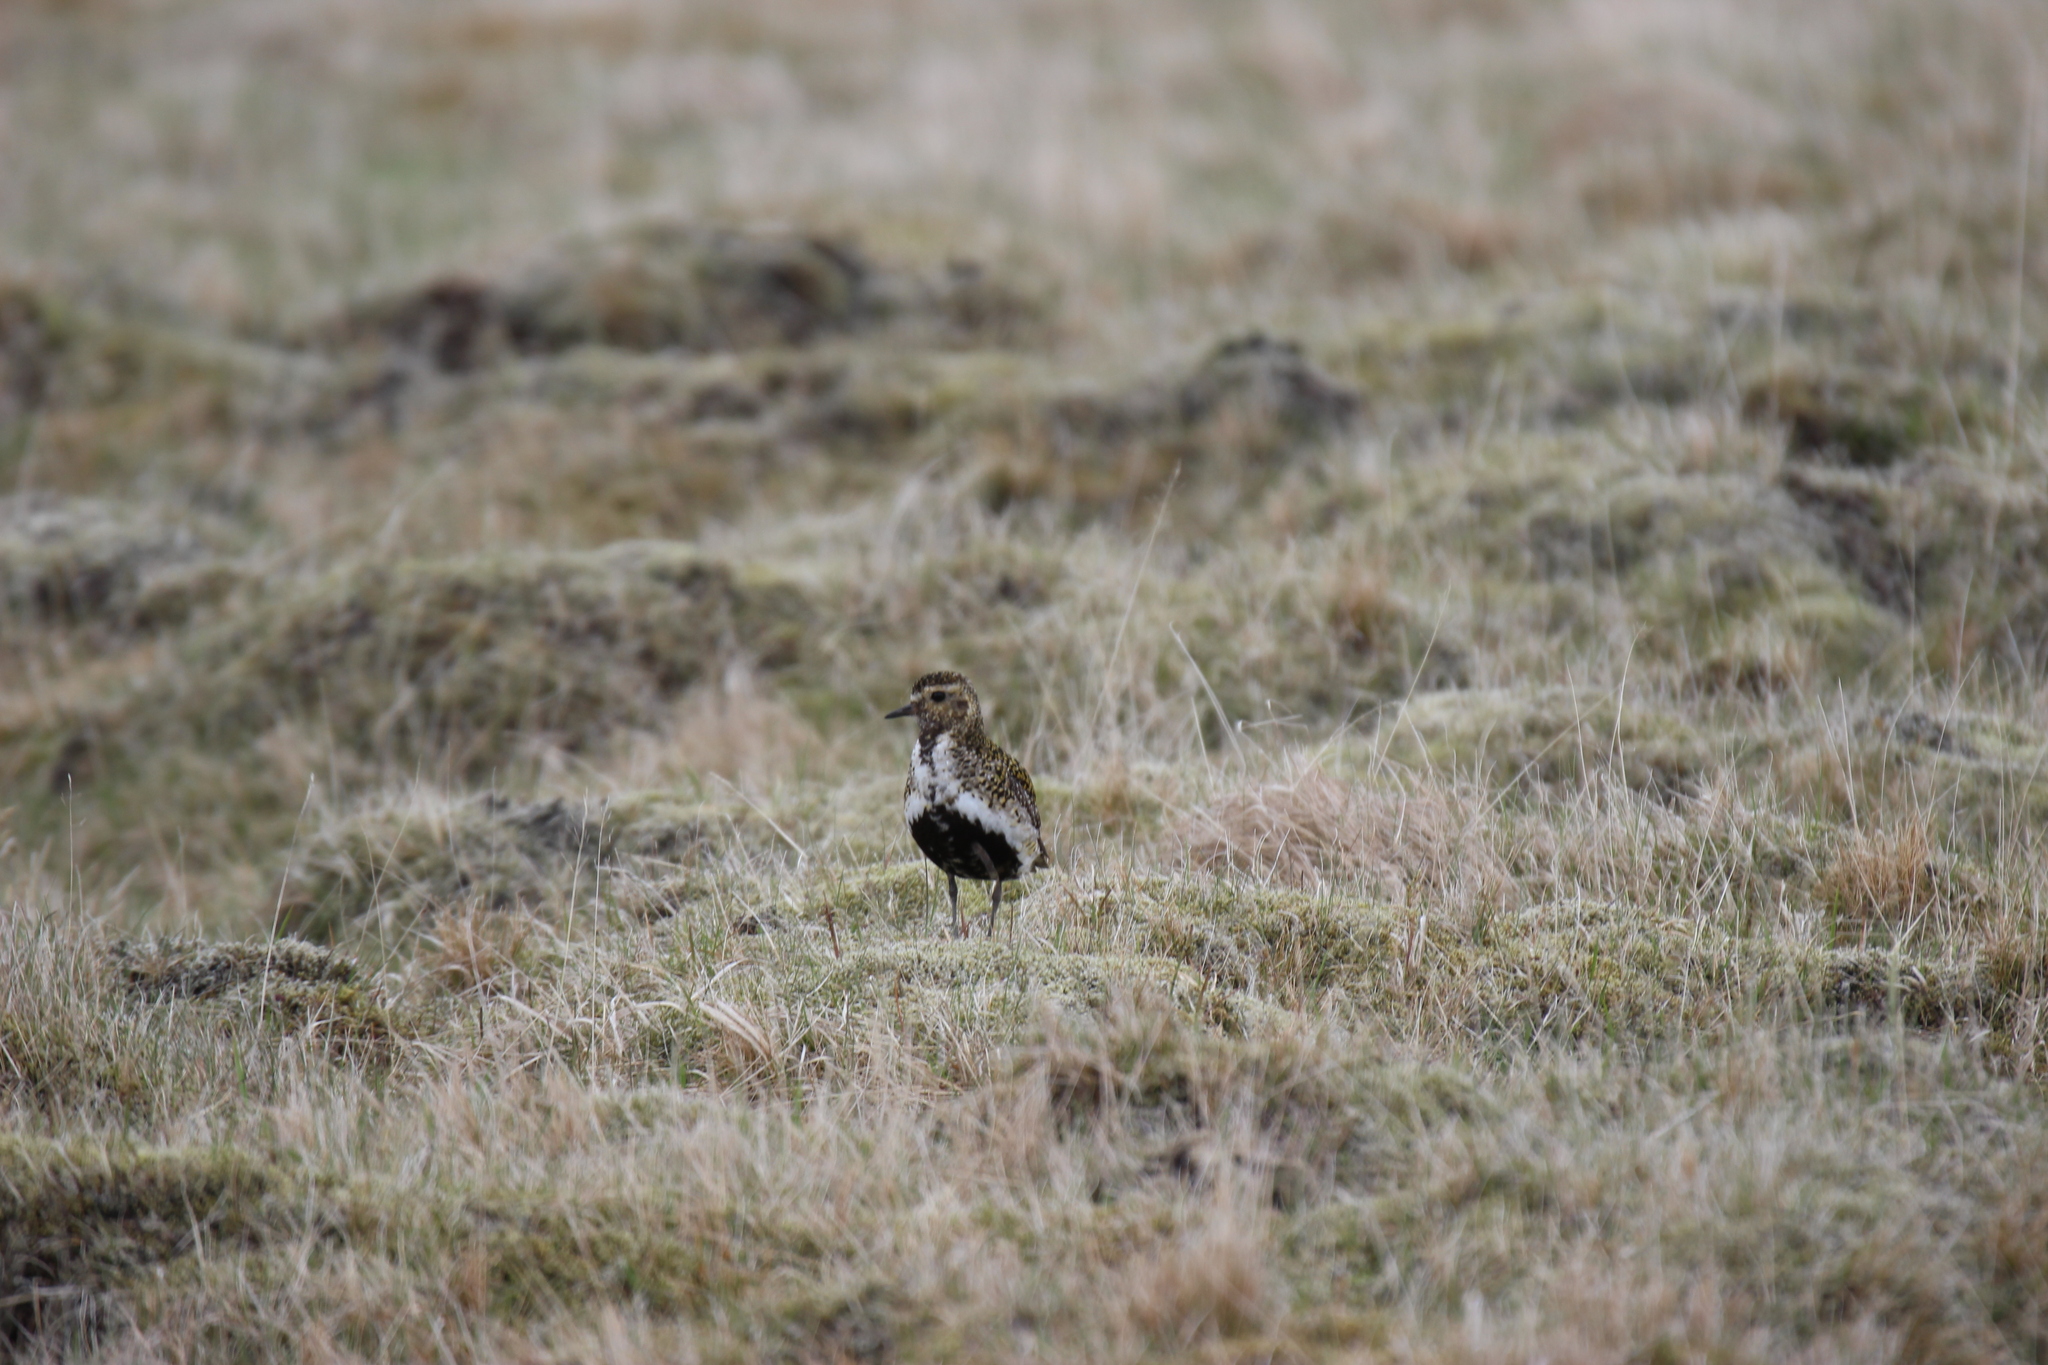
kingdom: Animalia
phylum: Chordata
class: Aves
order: Charadriiformes
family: Charadriidae
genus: Pluvialis
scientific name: Pluvialis apricaria
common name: European golden plover
